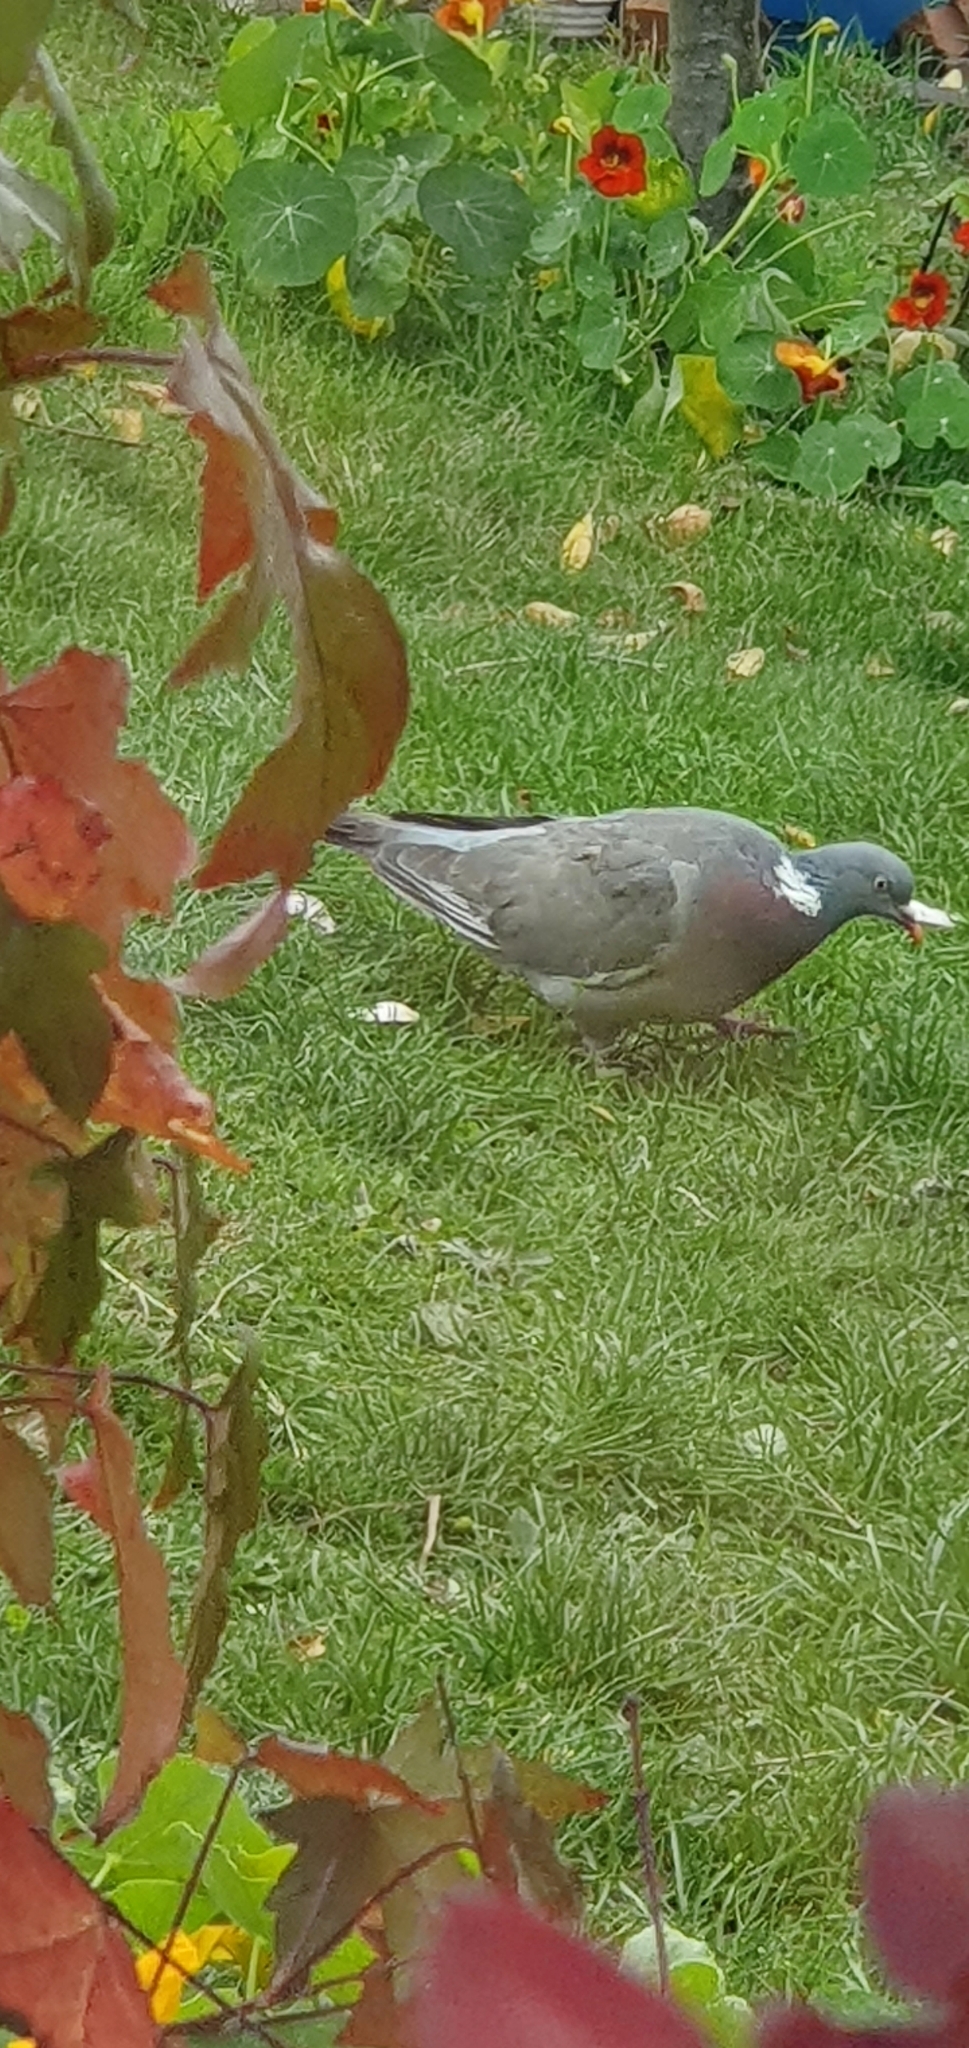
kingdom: Animalia
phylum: Chordata
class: Aves
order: Columbiformes
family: Columbidae
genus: Columba
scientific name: Columba palumbus
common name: Common wood pigeon
